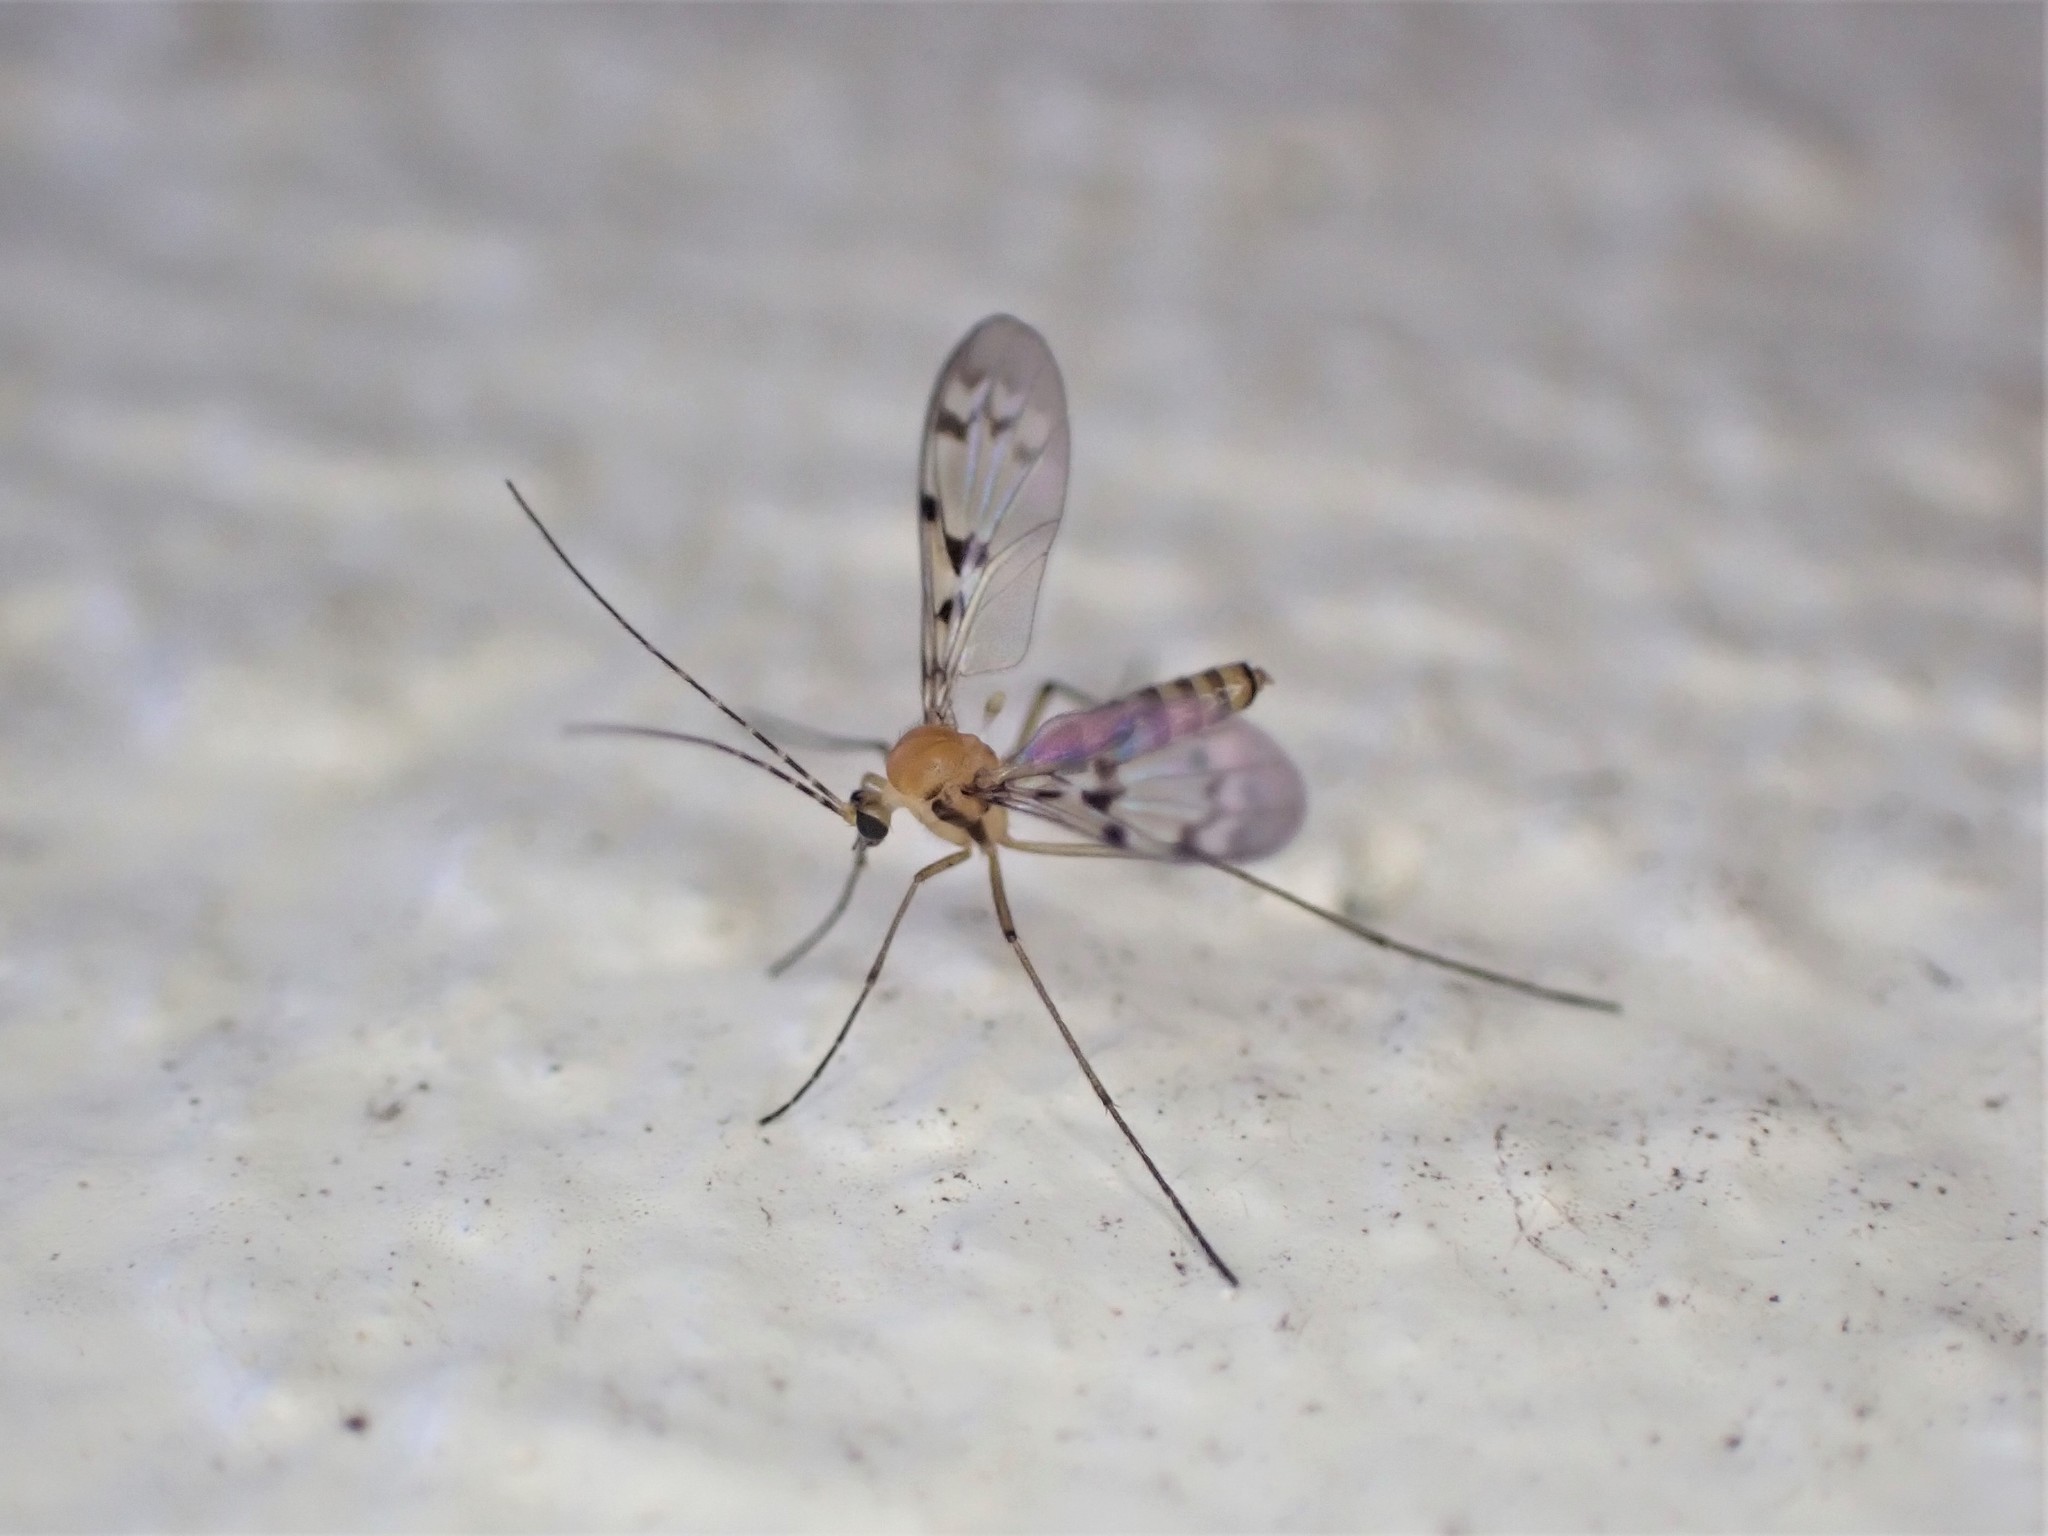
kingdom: Animalia
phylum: Arthropoda
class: Insecta
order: Diptera
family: Keroplatidae
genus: Chiasmoneura
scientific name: Chiasmoneura milligani
